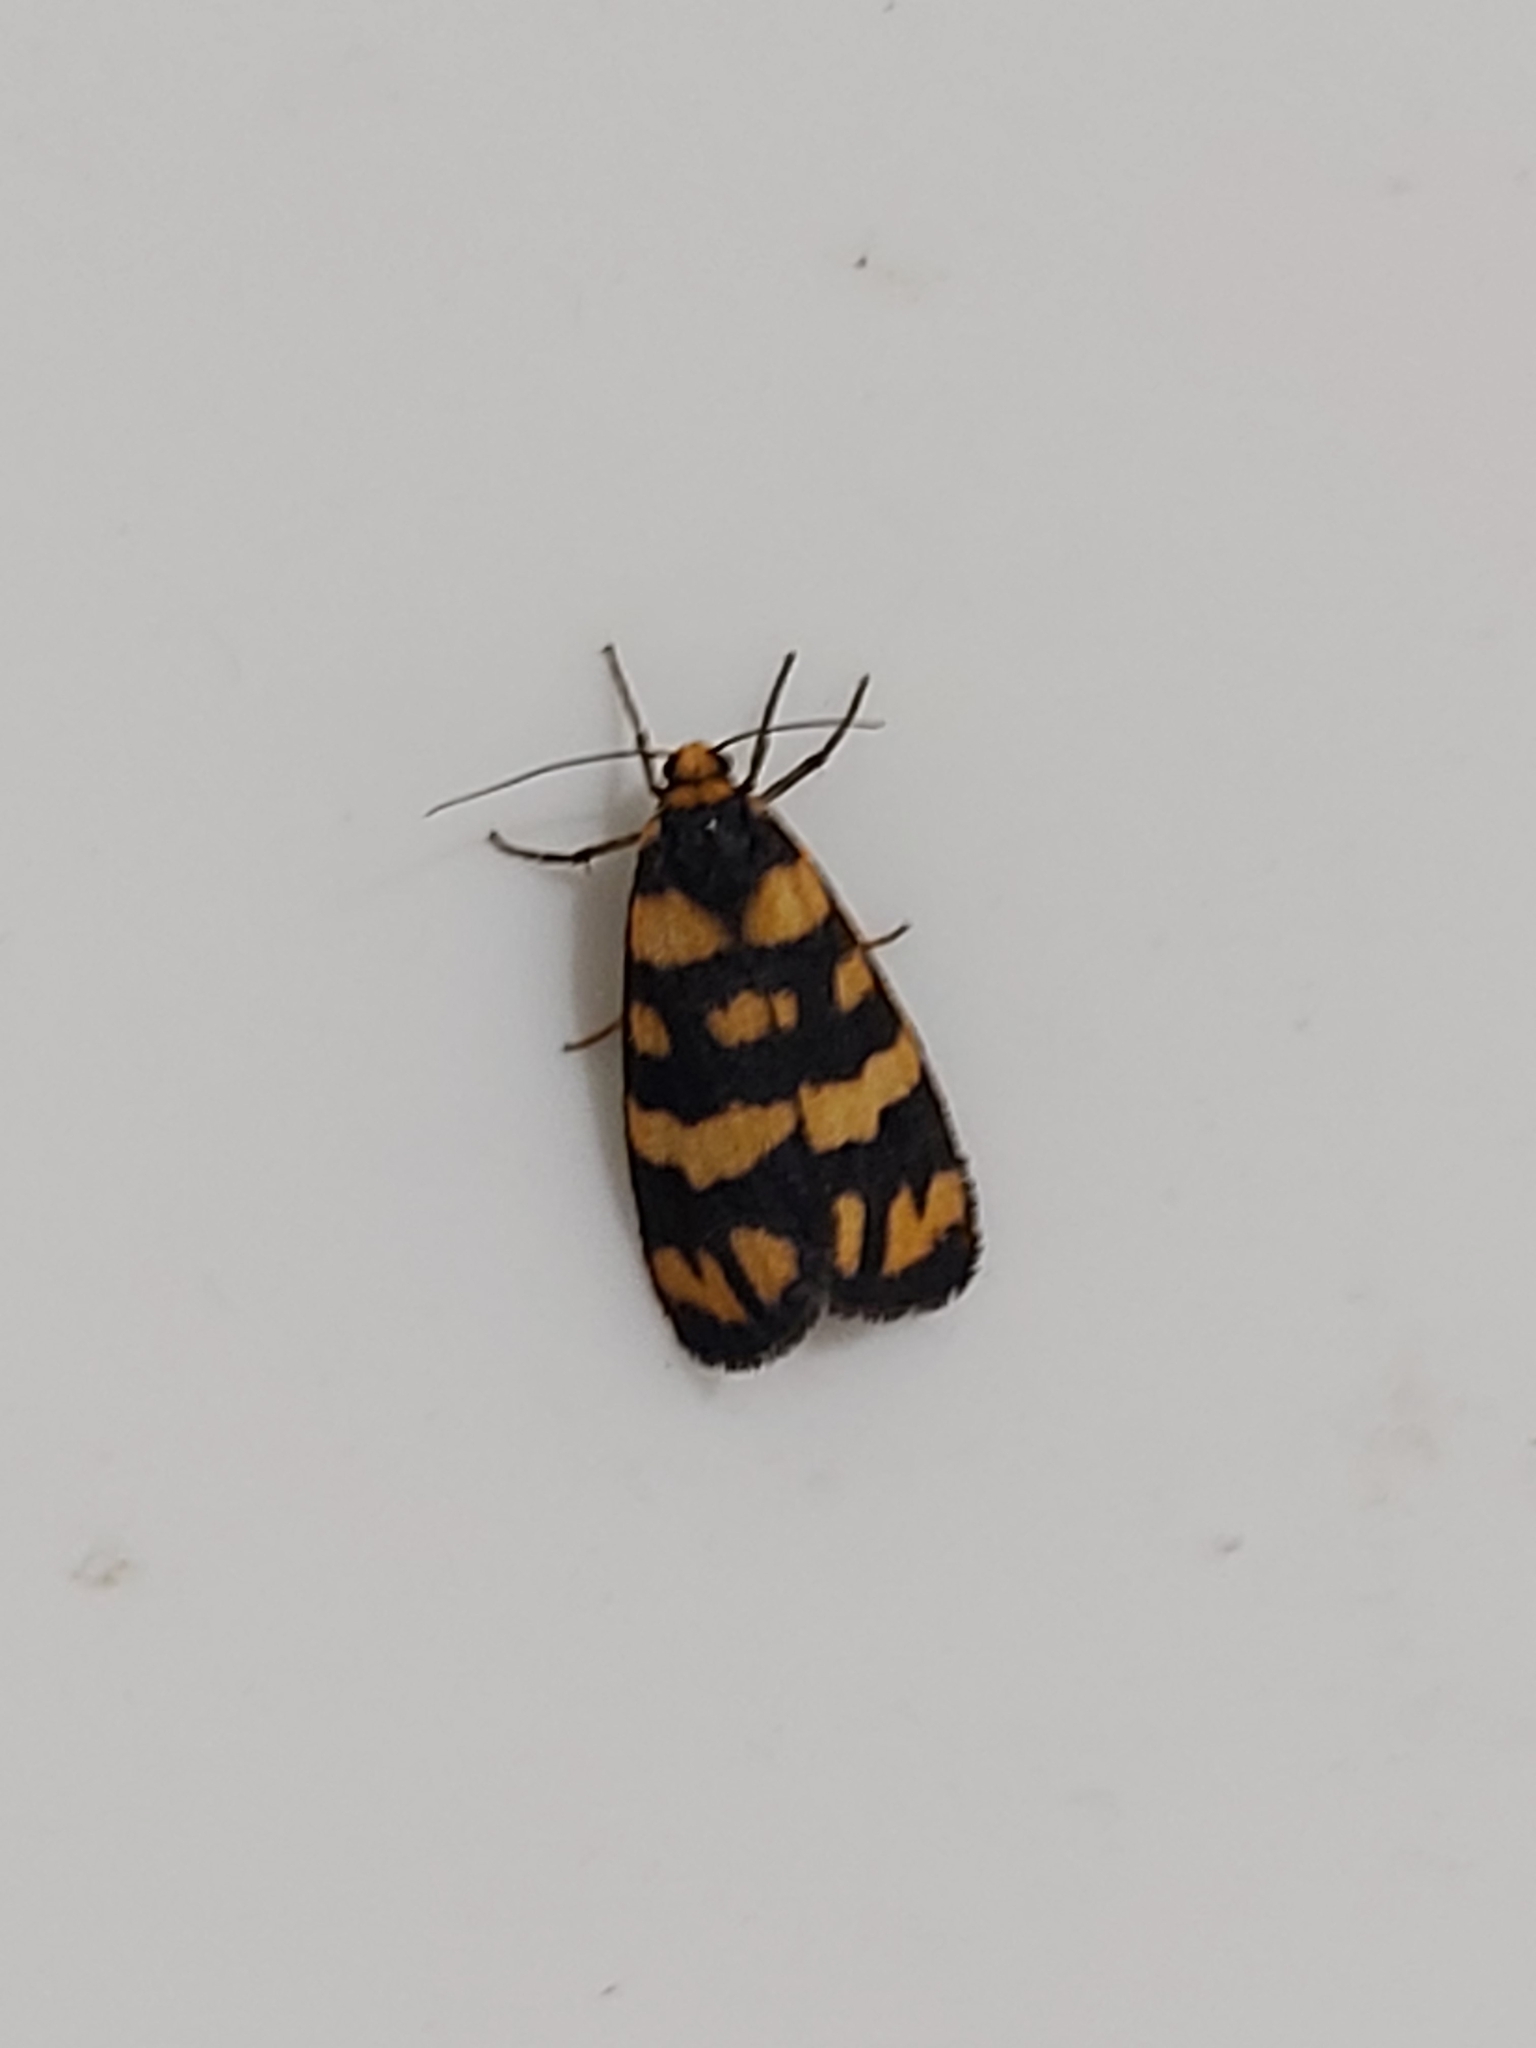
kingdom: Animalia
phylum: Arthropoda
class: Insecta
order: Lepidoptera
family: Erebidae
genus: Asura
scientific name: Asura terminalis
